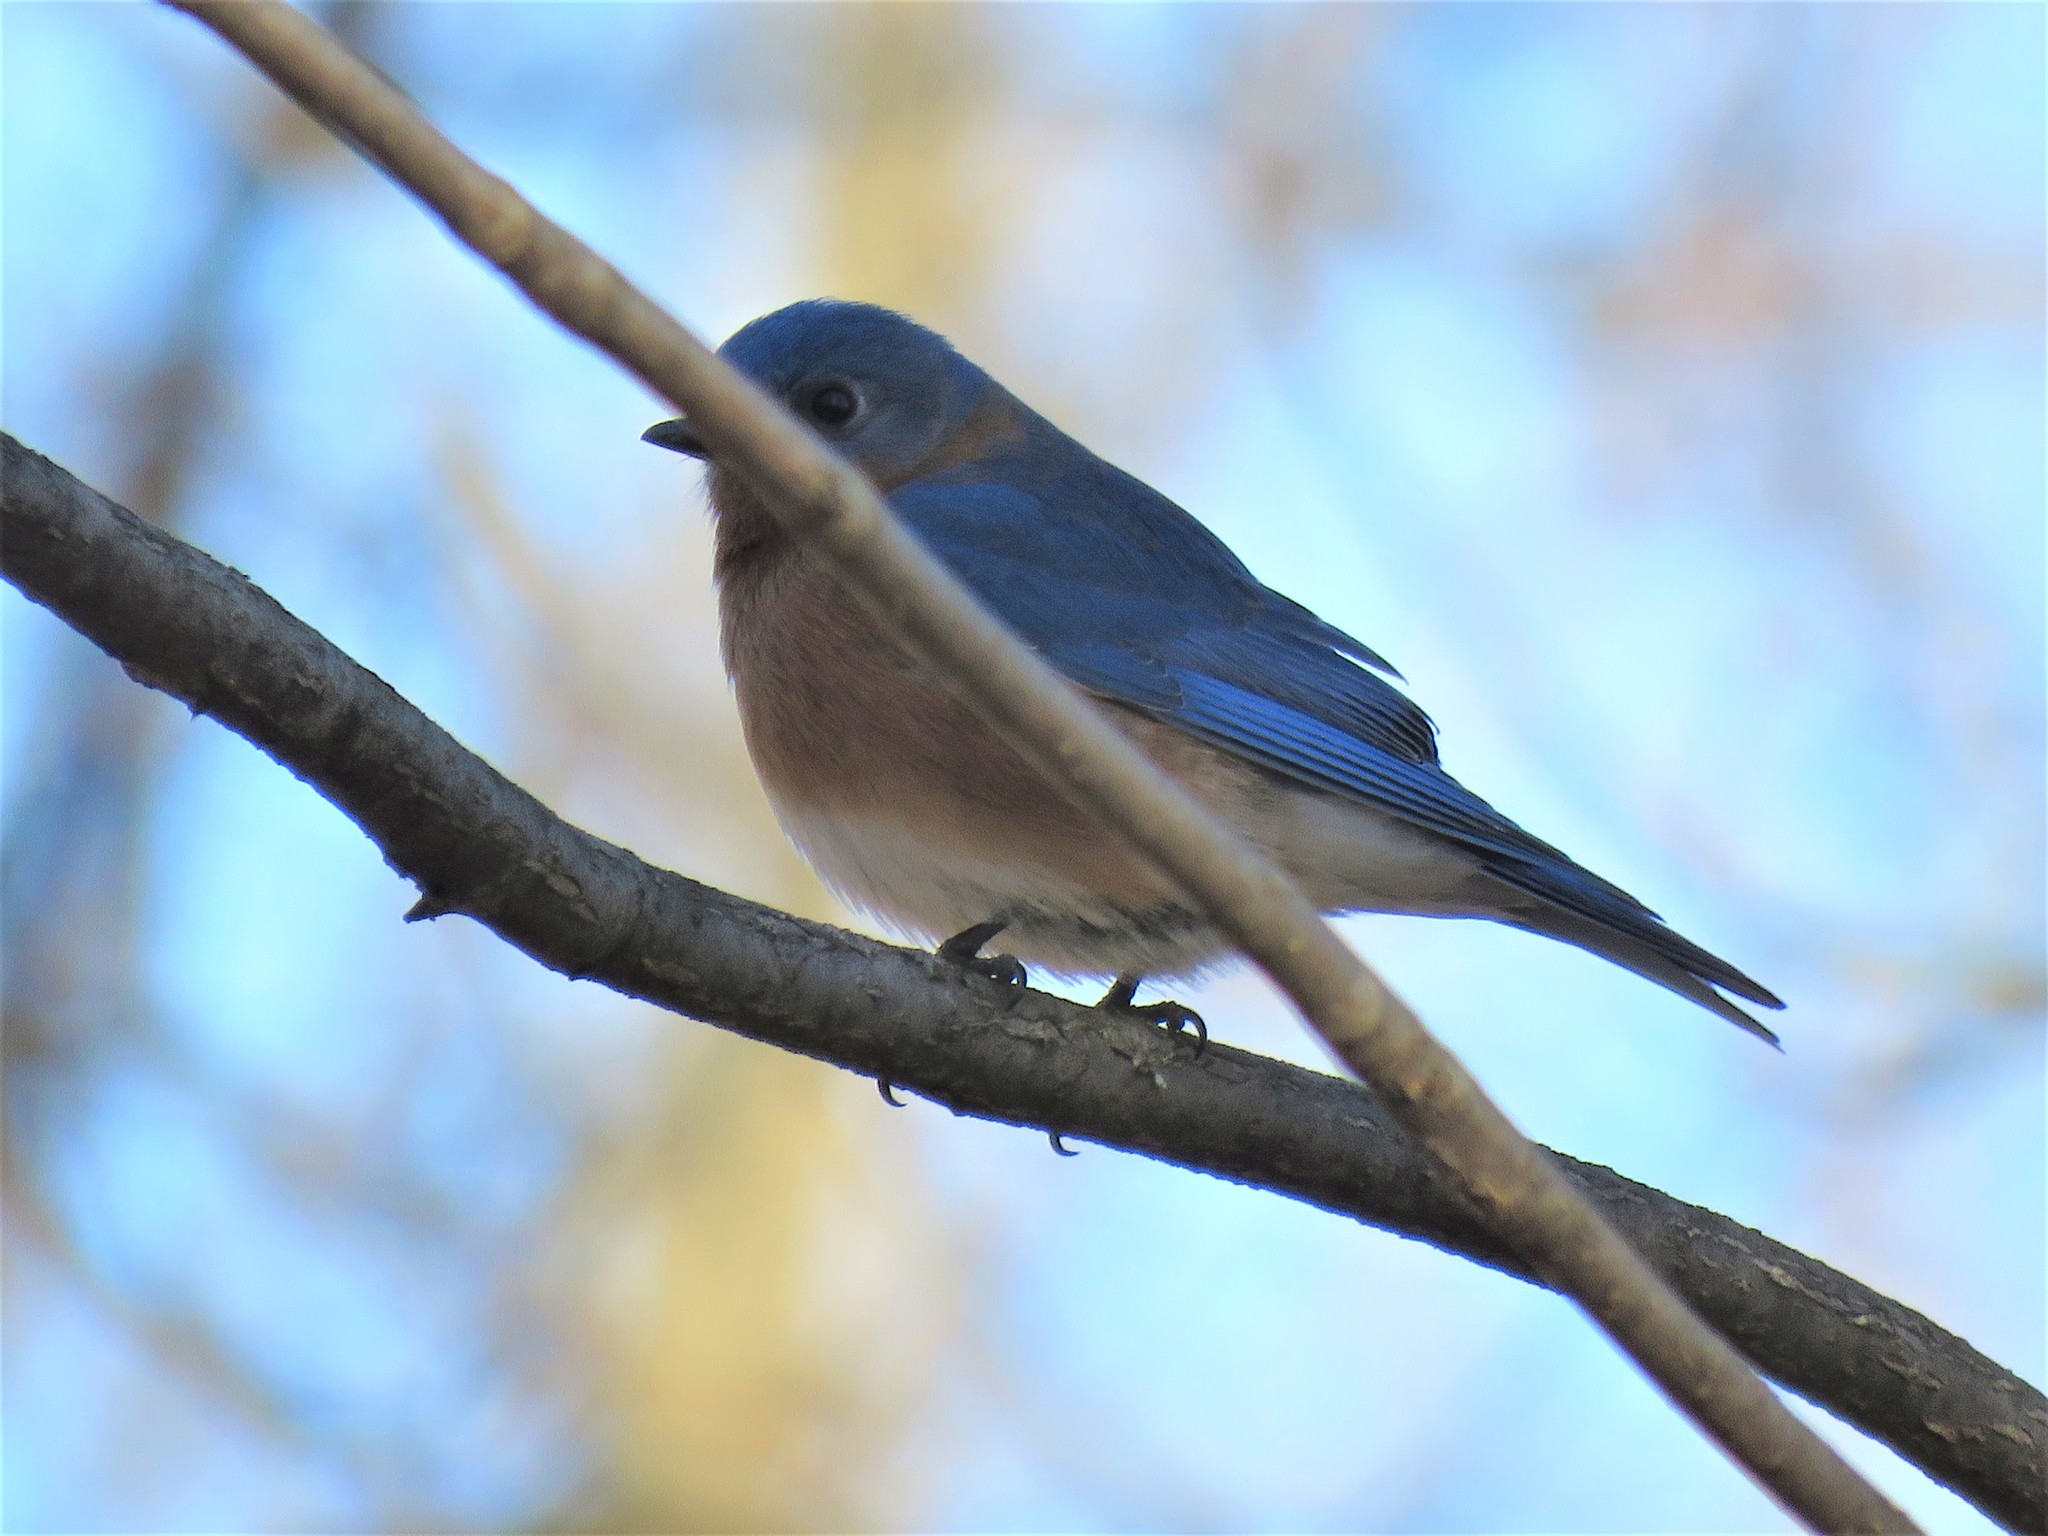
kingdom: Animalia
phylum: Chordata
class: Aves
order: Passeriformes
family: Turdidae
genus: Sialia
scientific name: Sialia sialis
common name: Eastern bluebird
